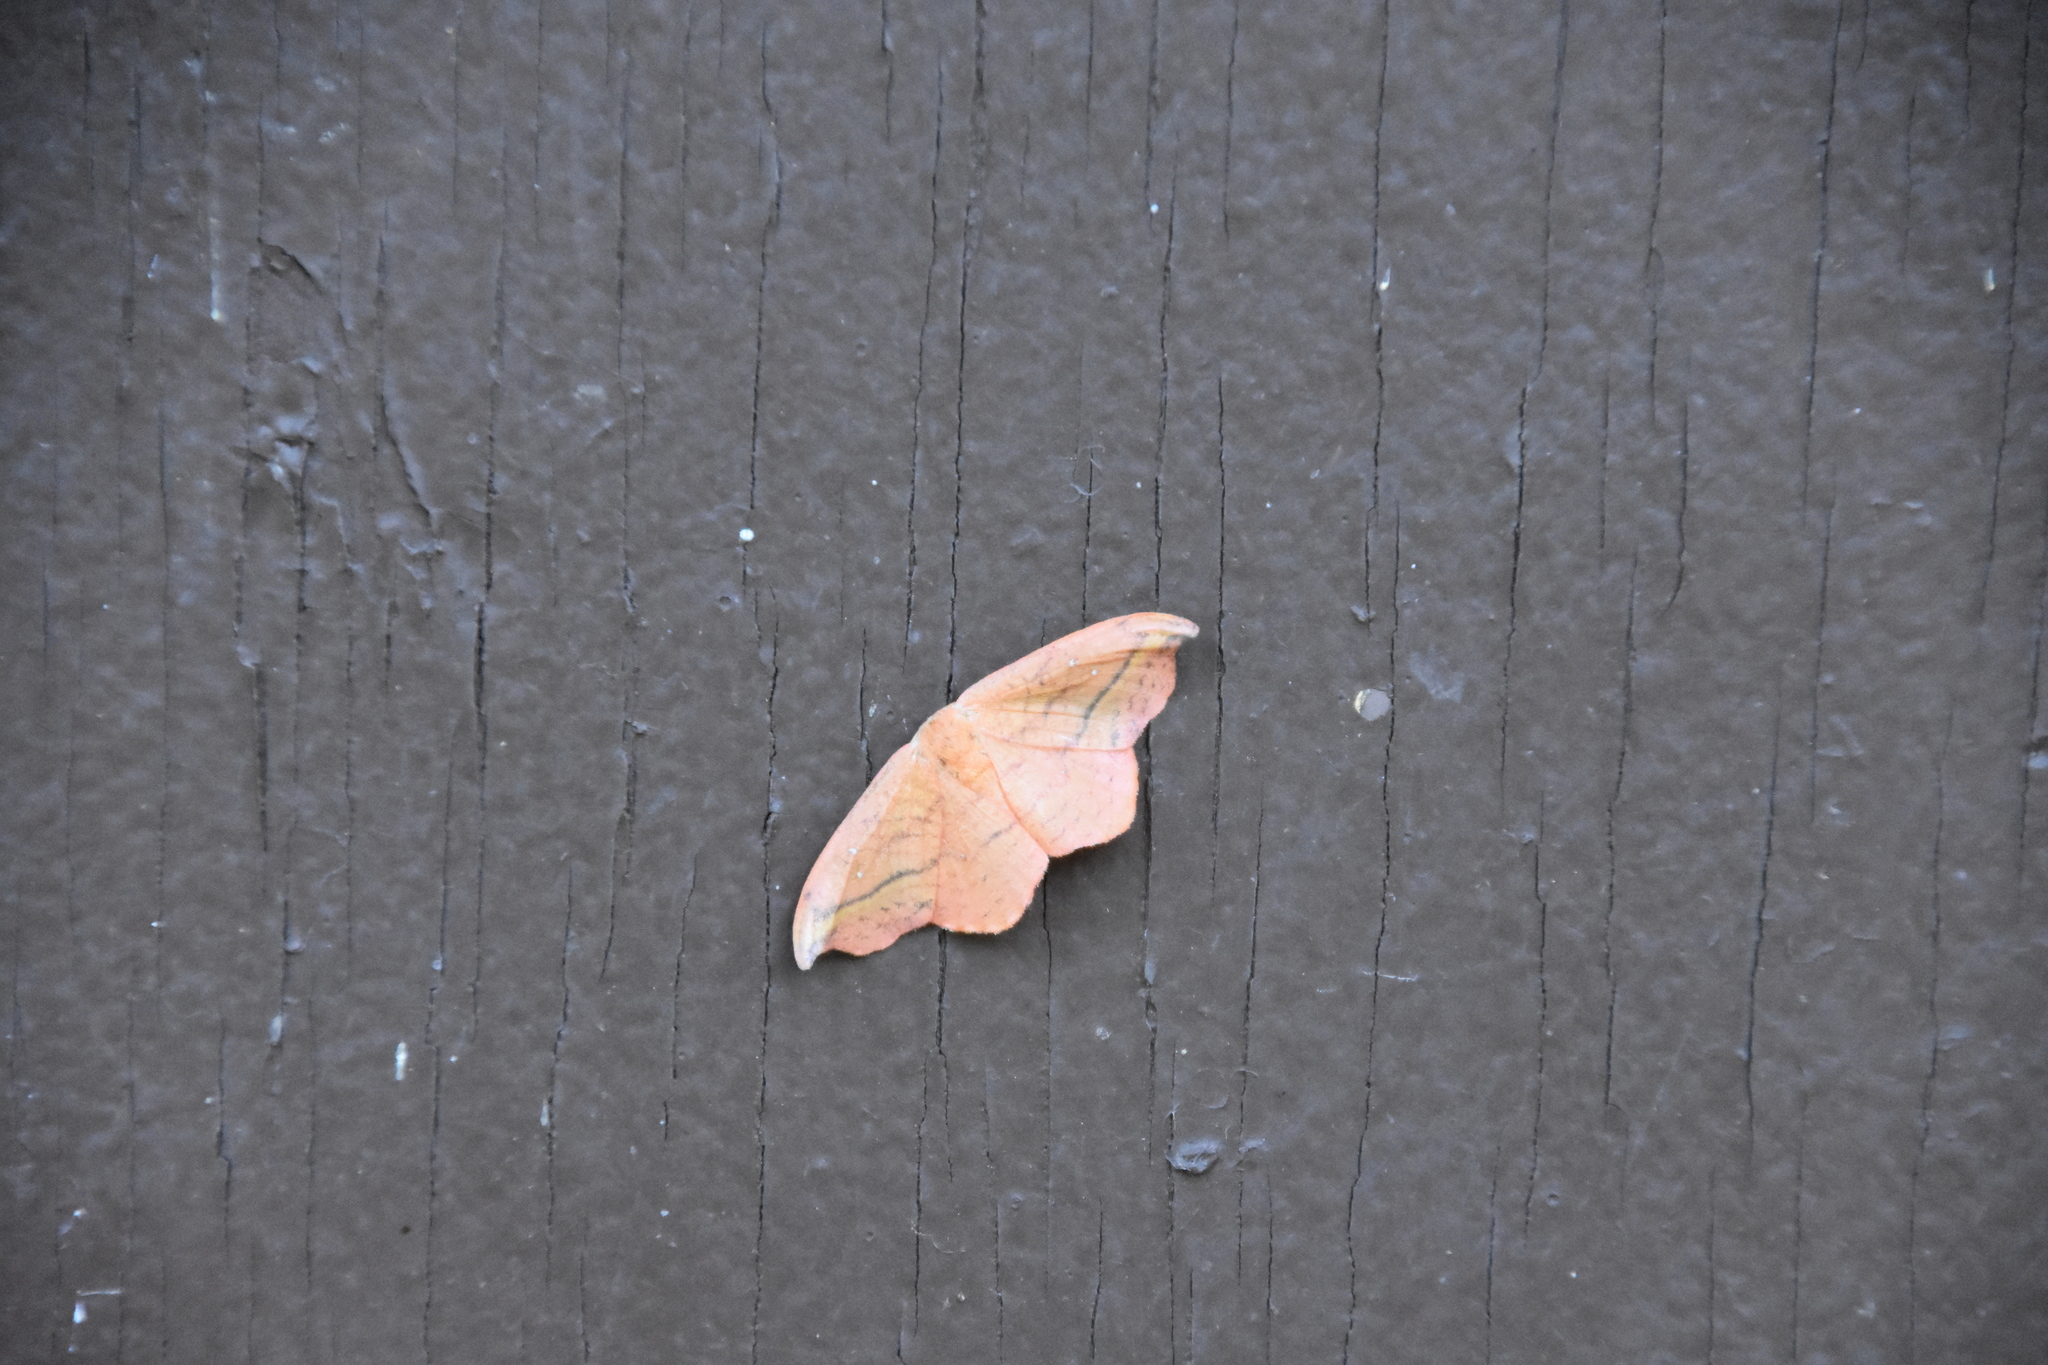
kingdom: Animalia
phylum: Arthropoda
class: Insecta
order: Lepidoptera
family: Drepanidae
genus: Oreta
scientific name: Oreta rosea
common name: Rose hooktip
